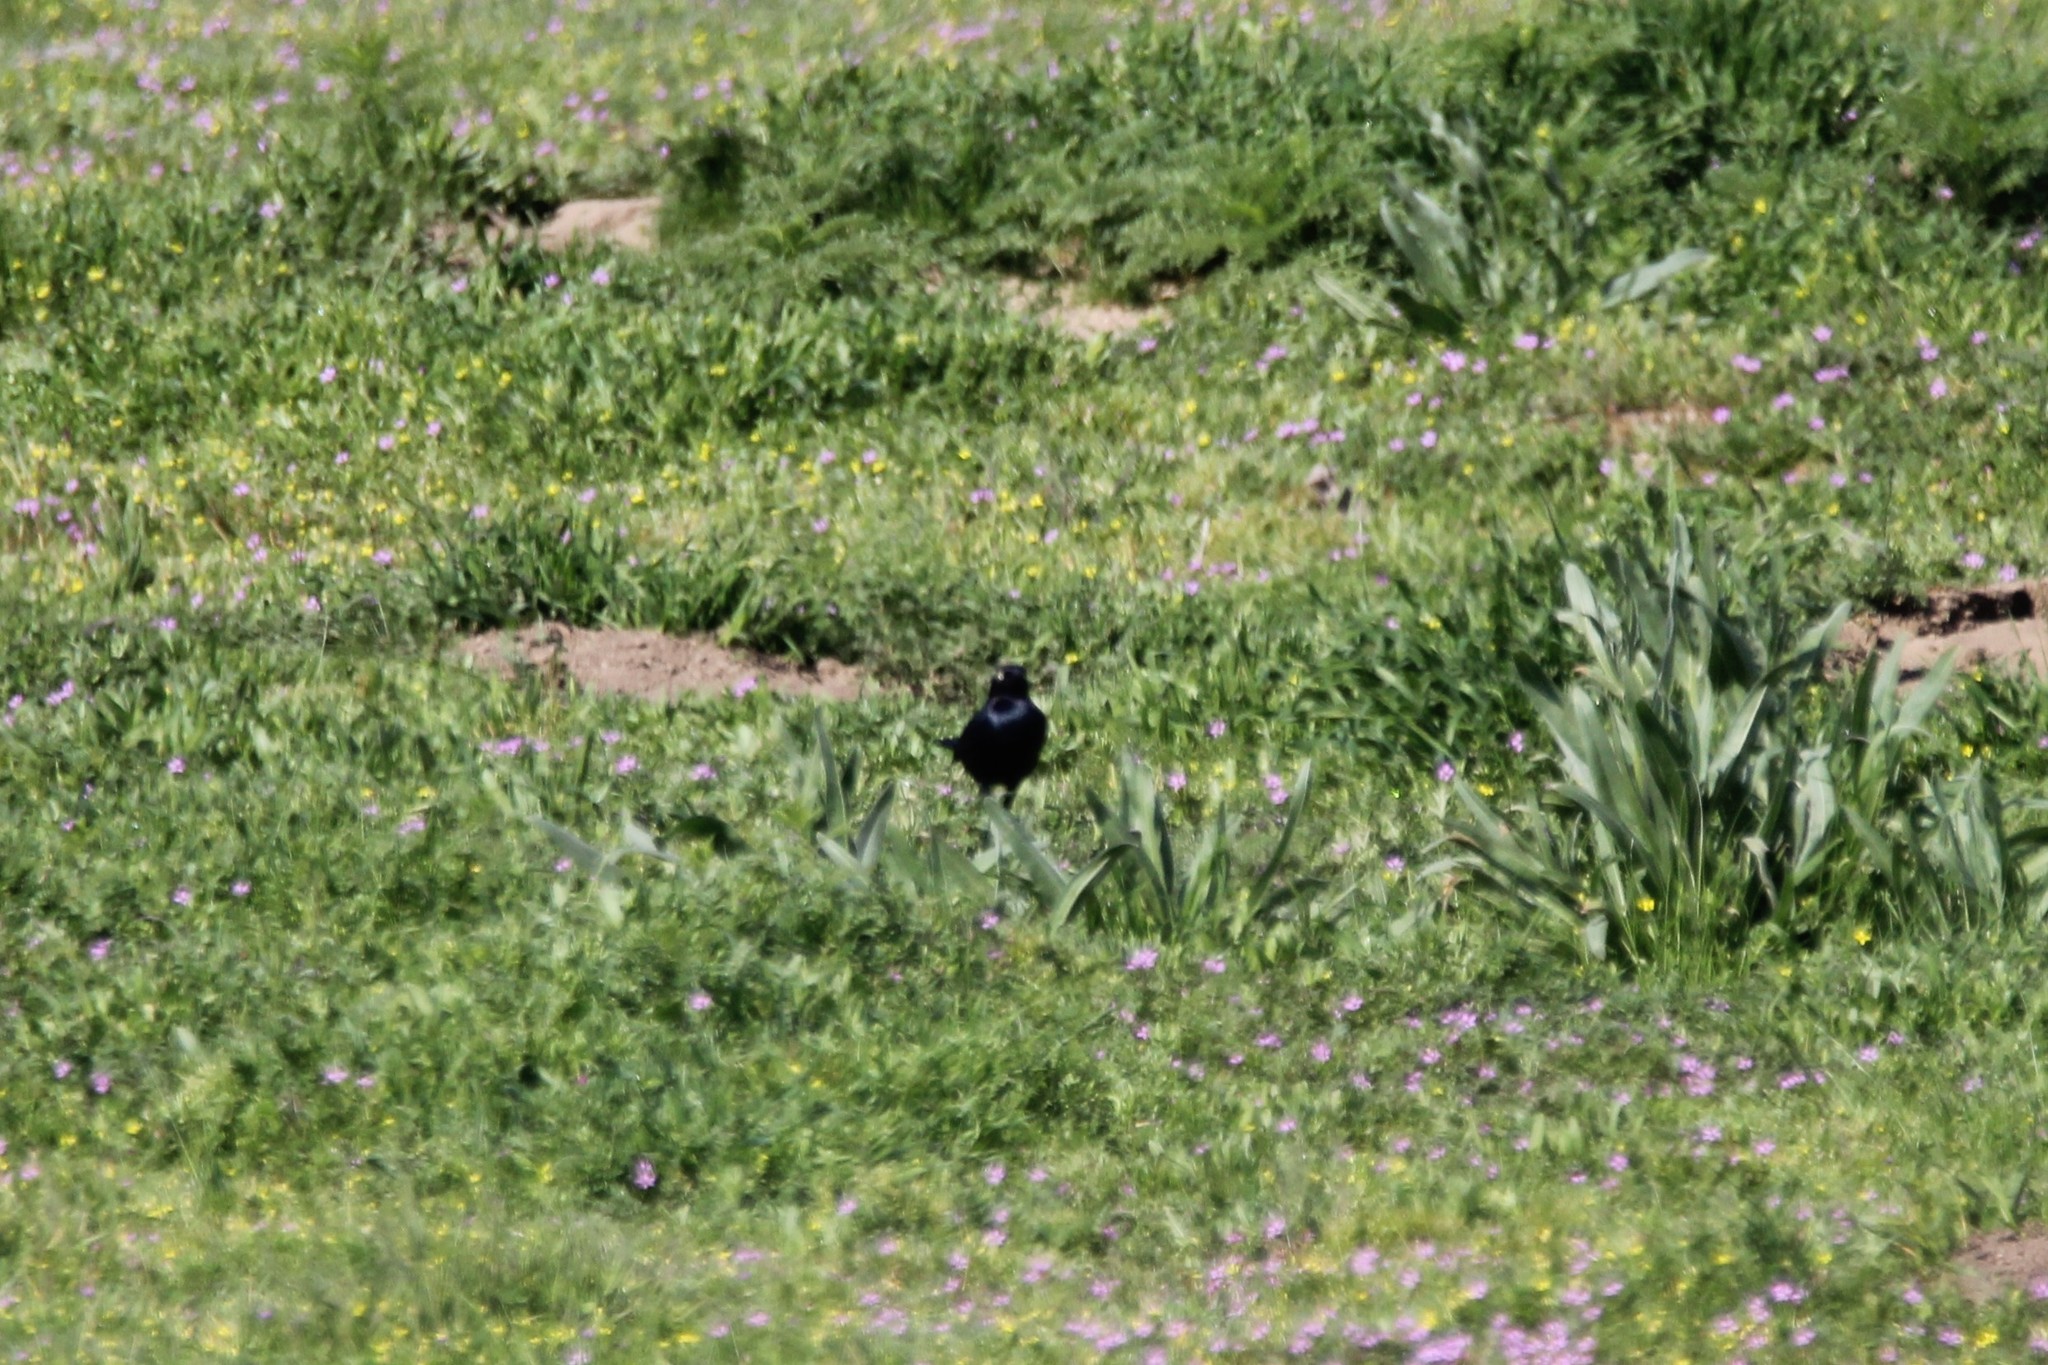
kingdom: Animalia
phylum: Chordata
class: Aves
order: Passeriformes
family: Icteridae
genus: Euphagus
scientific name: Euphagus cyanocephalus
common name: Brewer's blackbird
